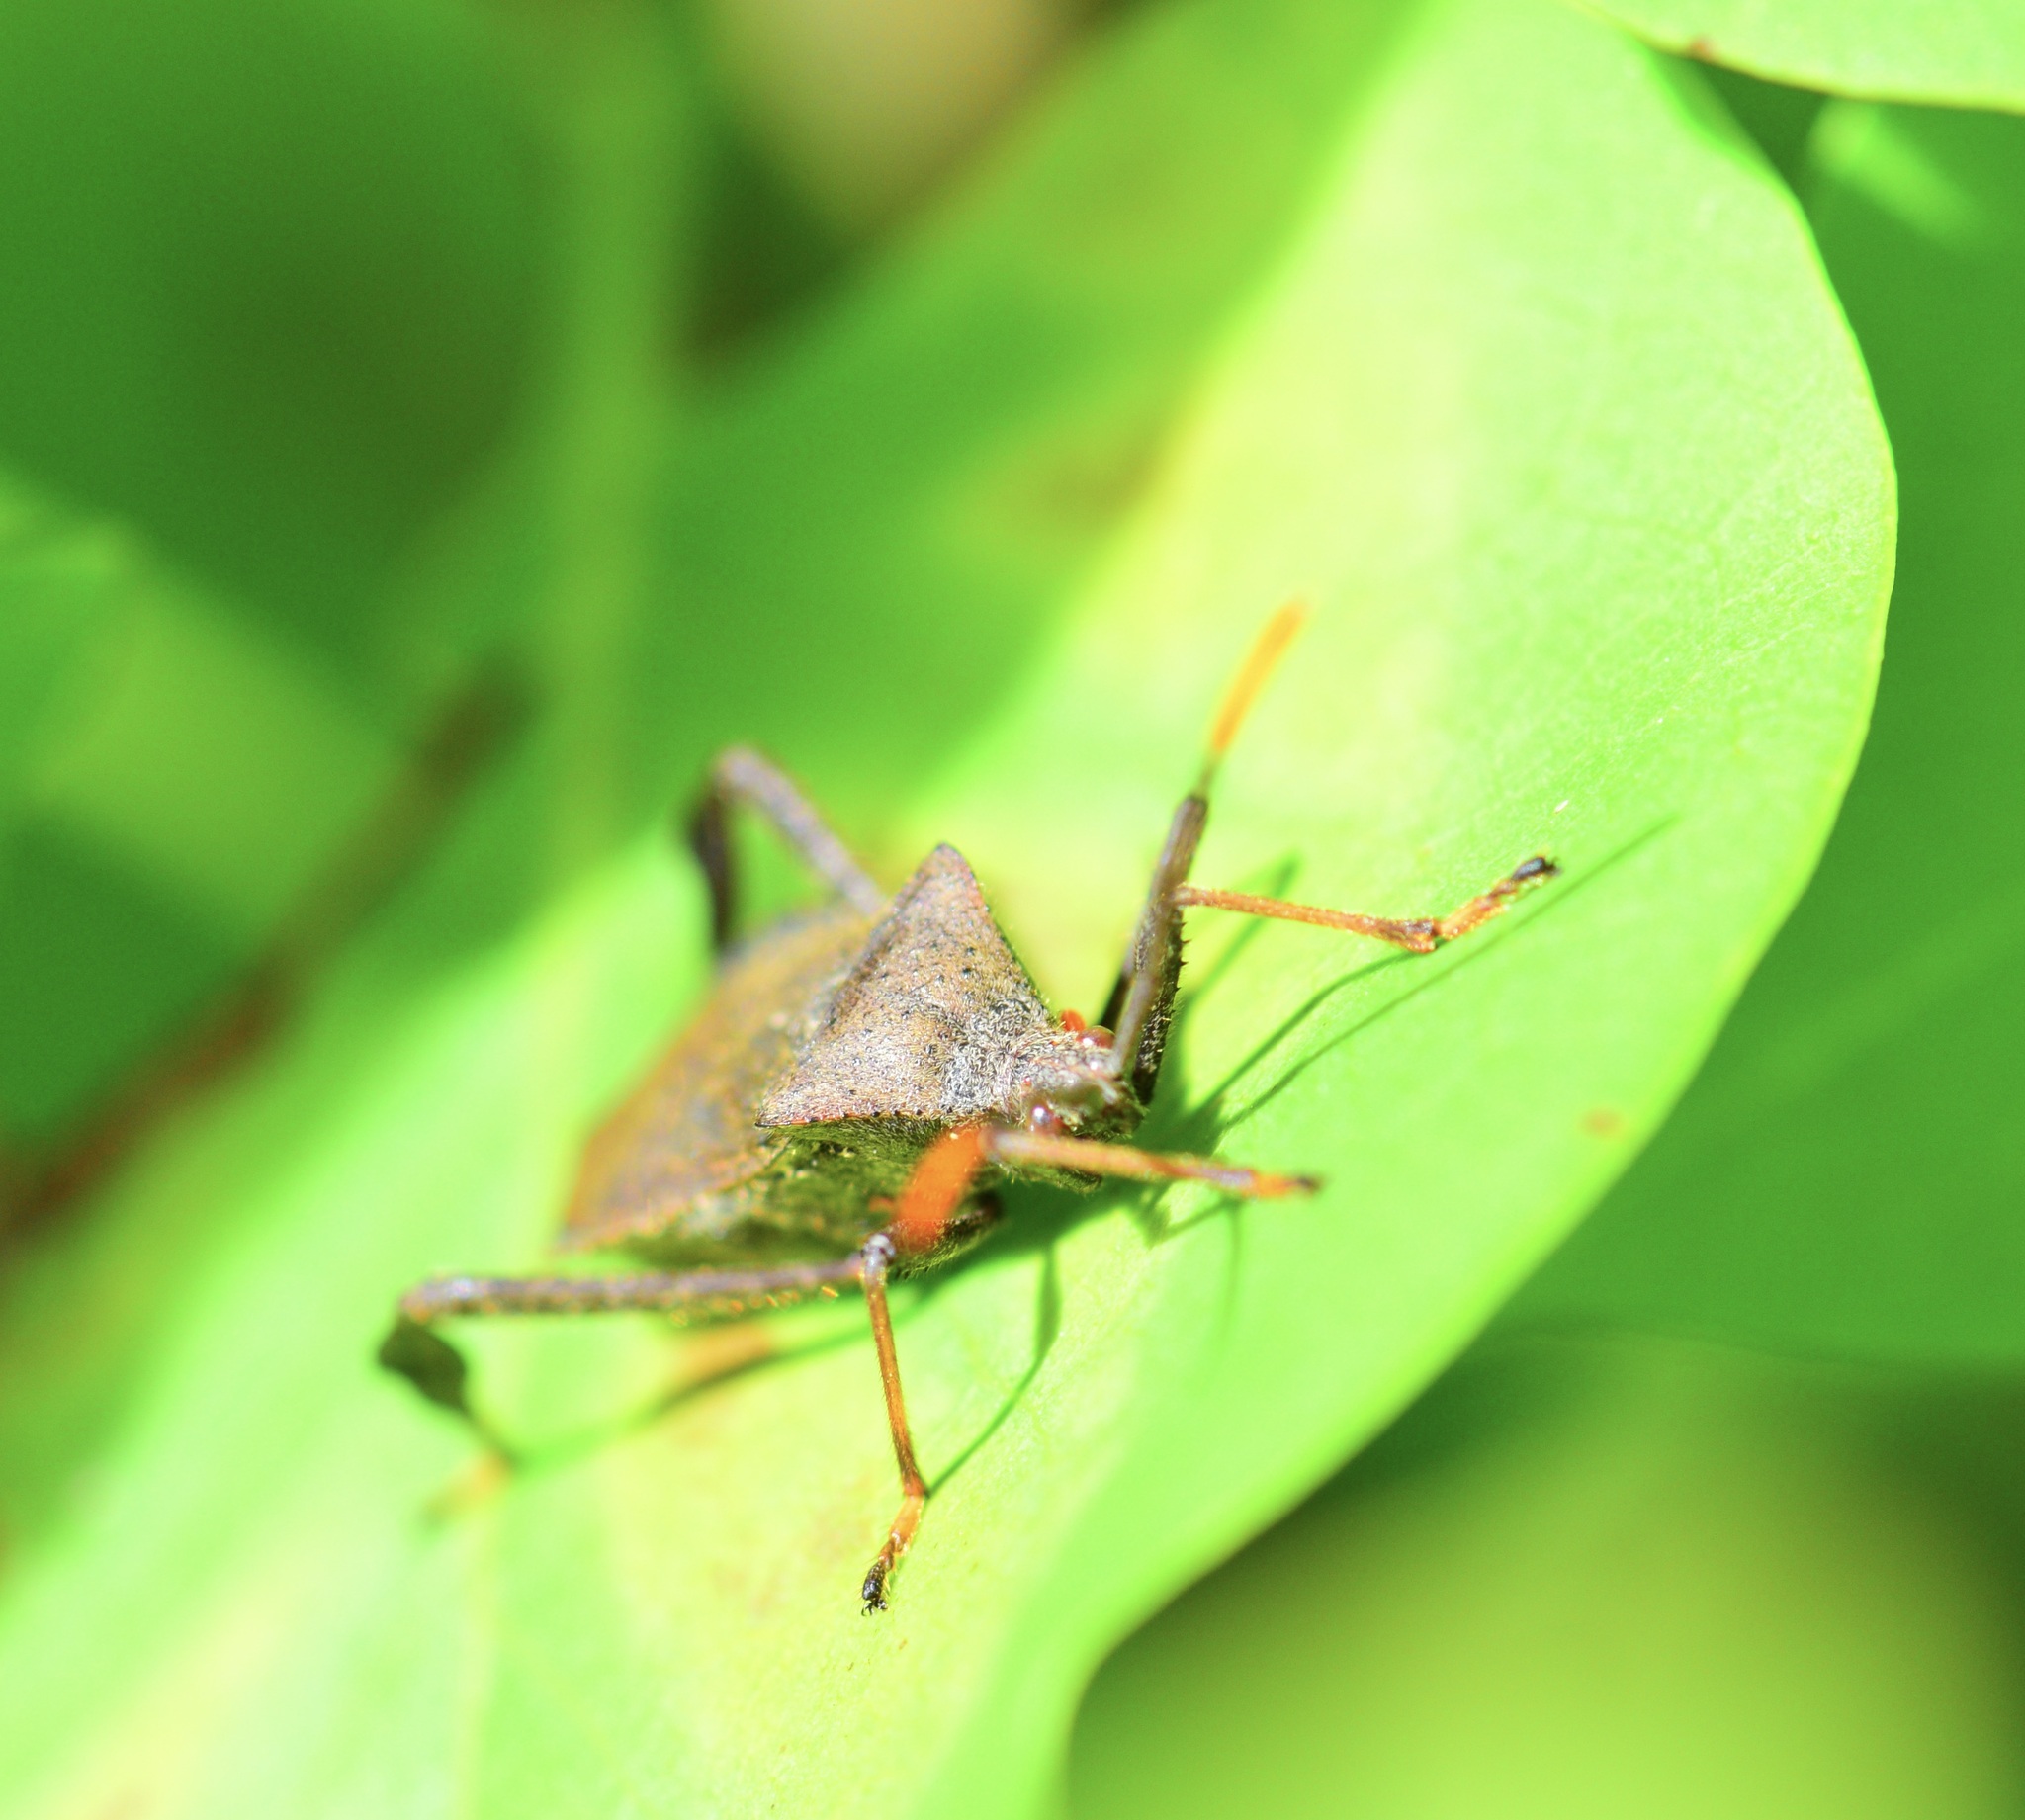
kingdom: Animalia
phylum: Arthropoda
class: Insecta
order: Hemiptera
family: Coreidae
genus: Acanthocephala
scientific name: Acanthocephala terminalis
